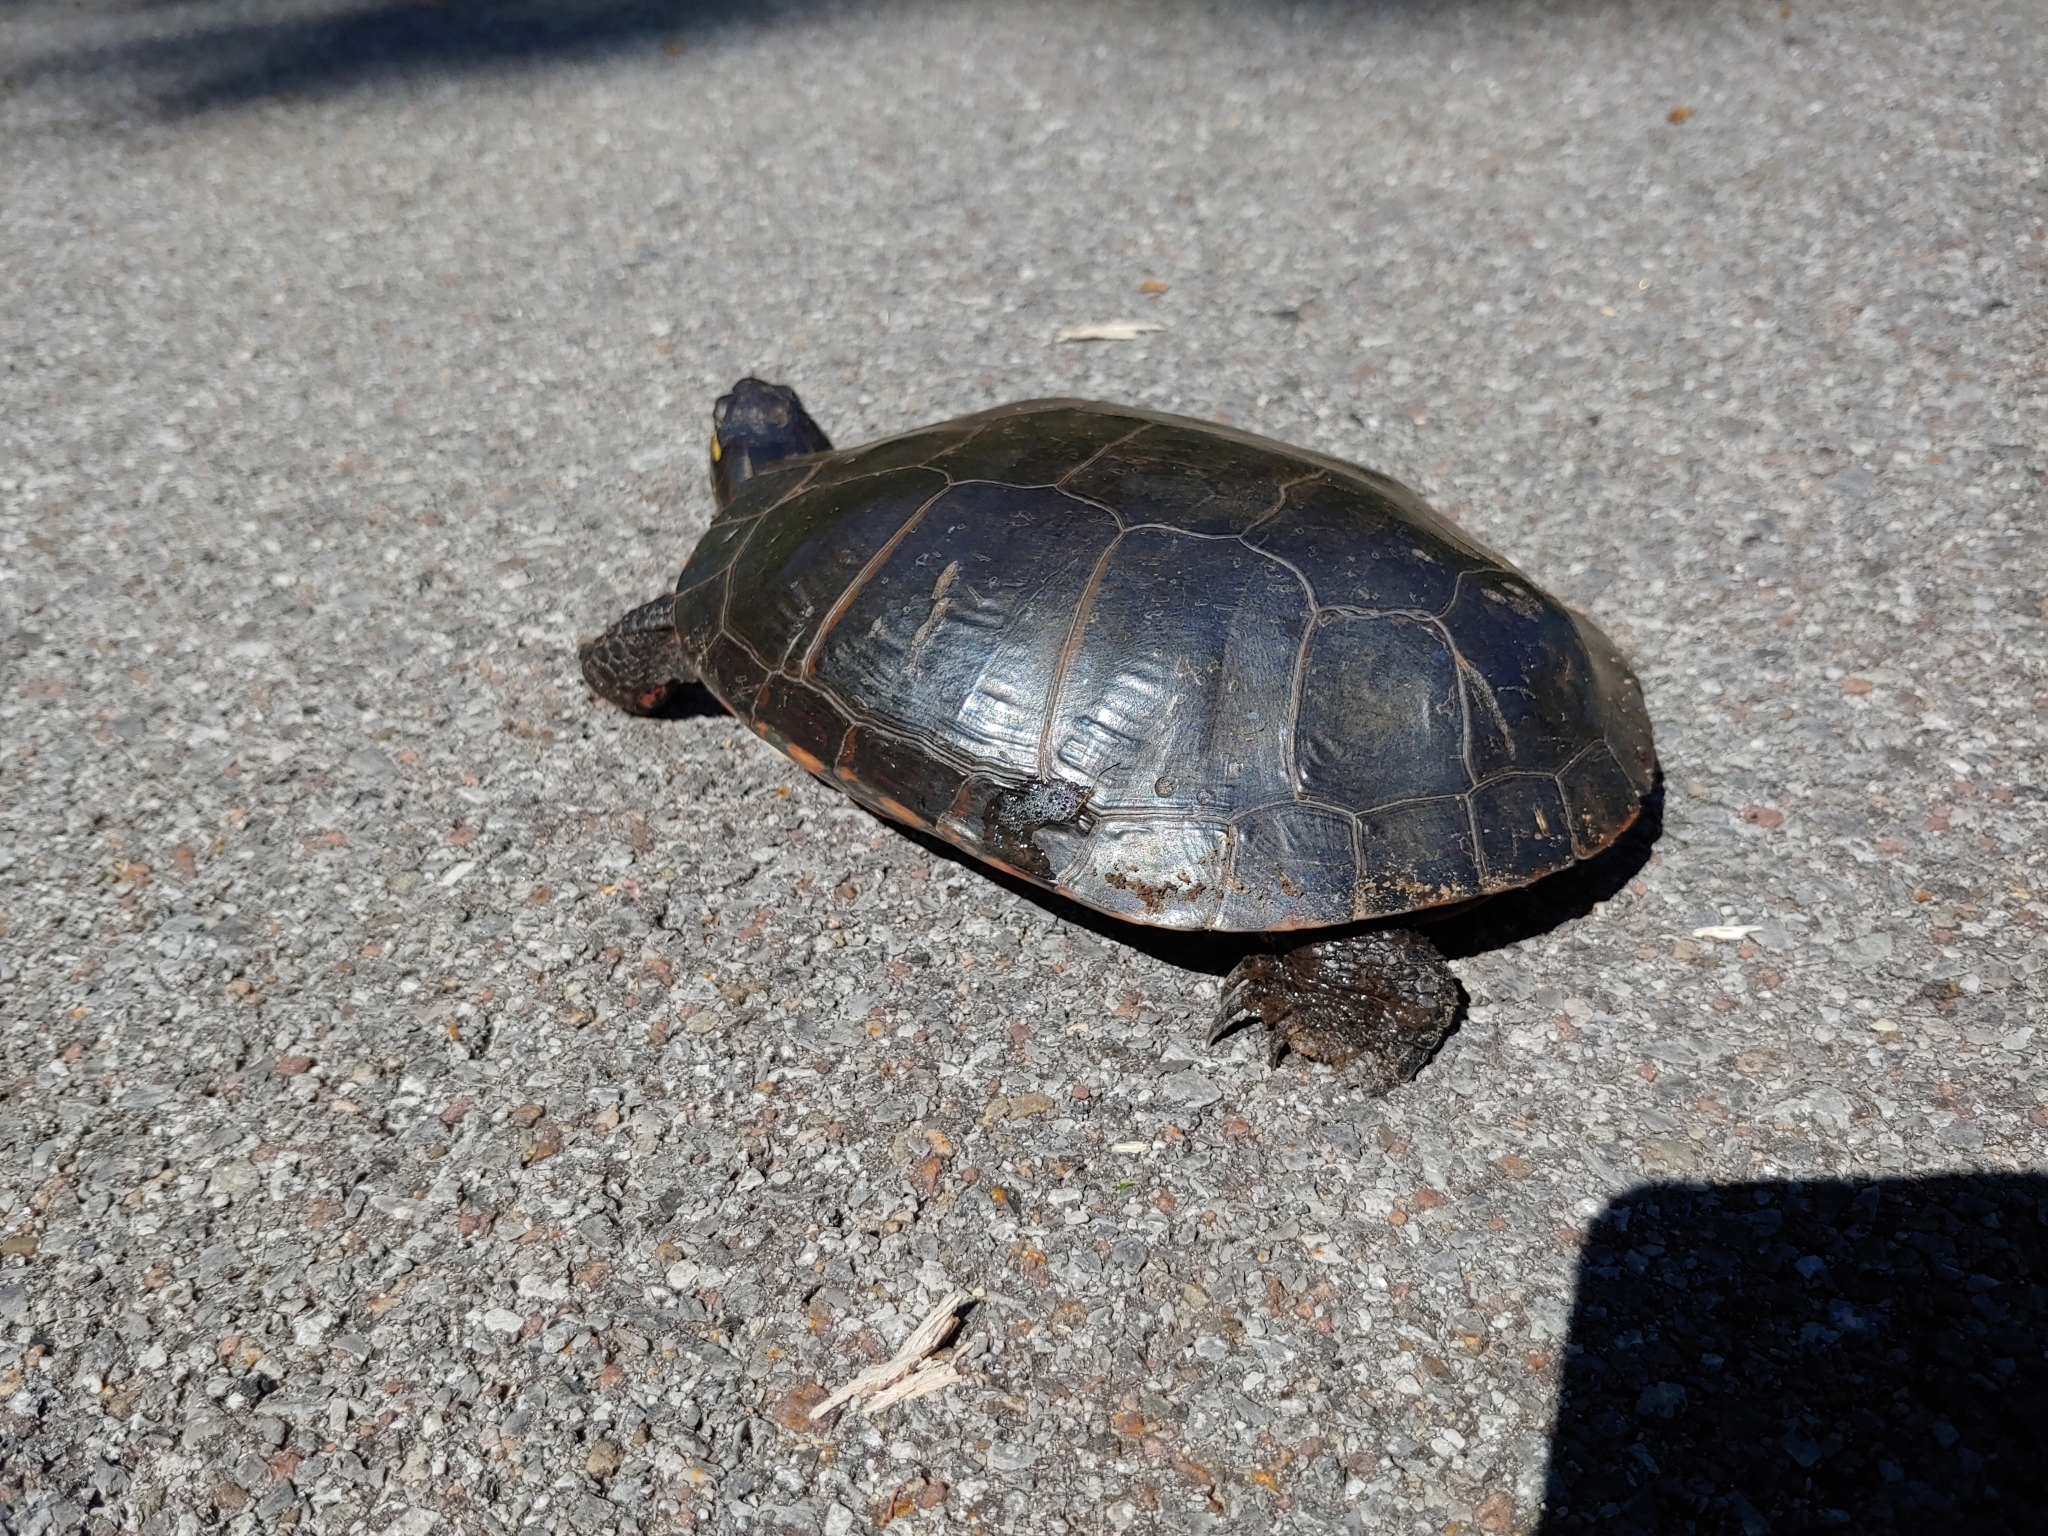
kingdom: Animalia
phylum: Chordata
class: Testudines
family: Emydidae
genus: Chrysemys
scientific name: Chrysemys picta
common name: Painted turtle
